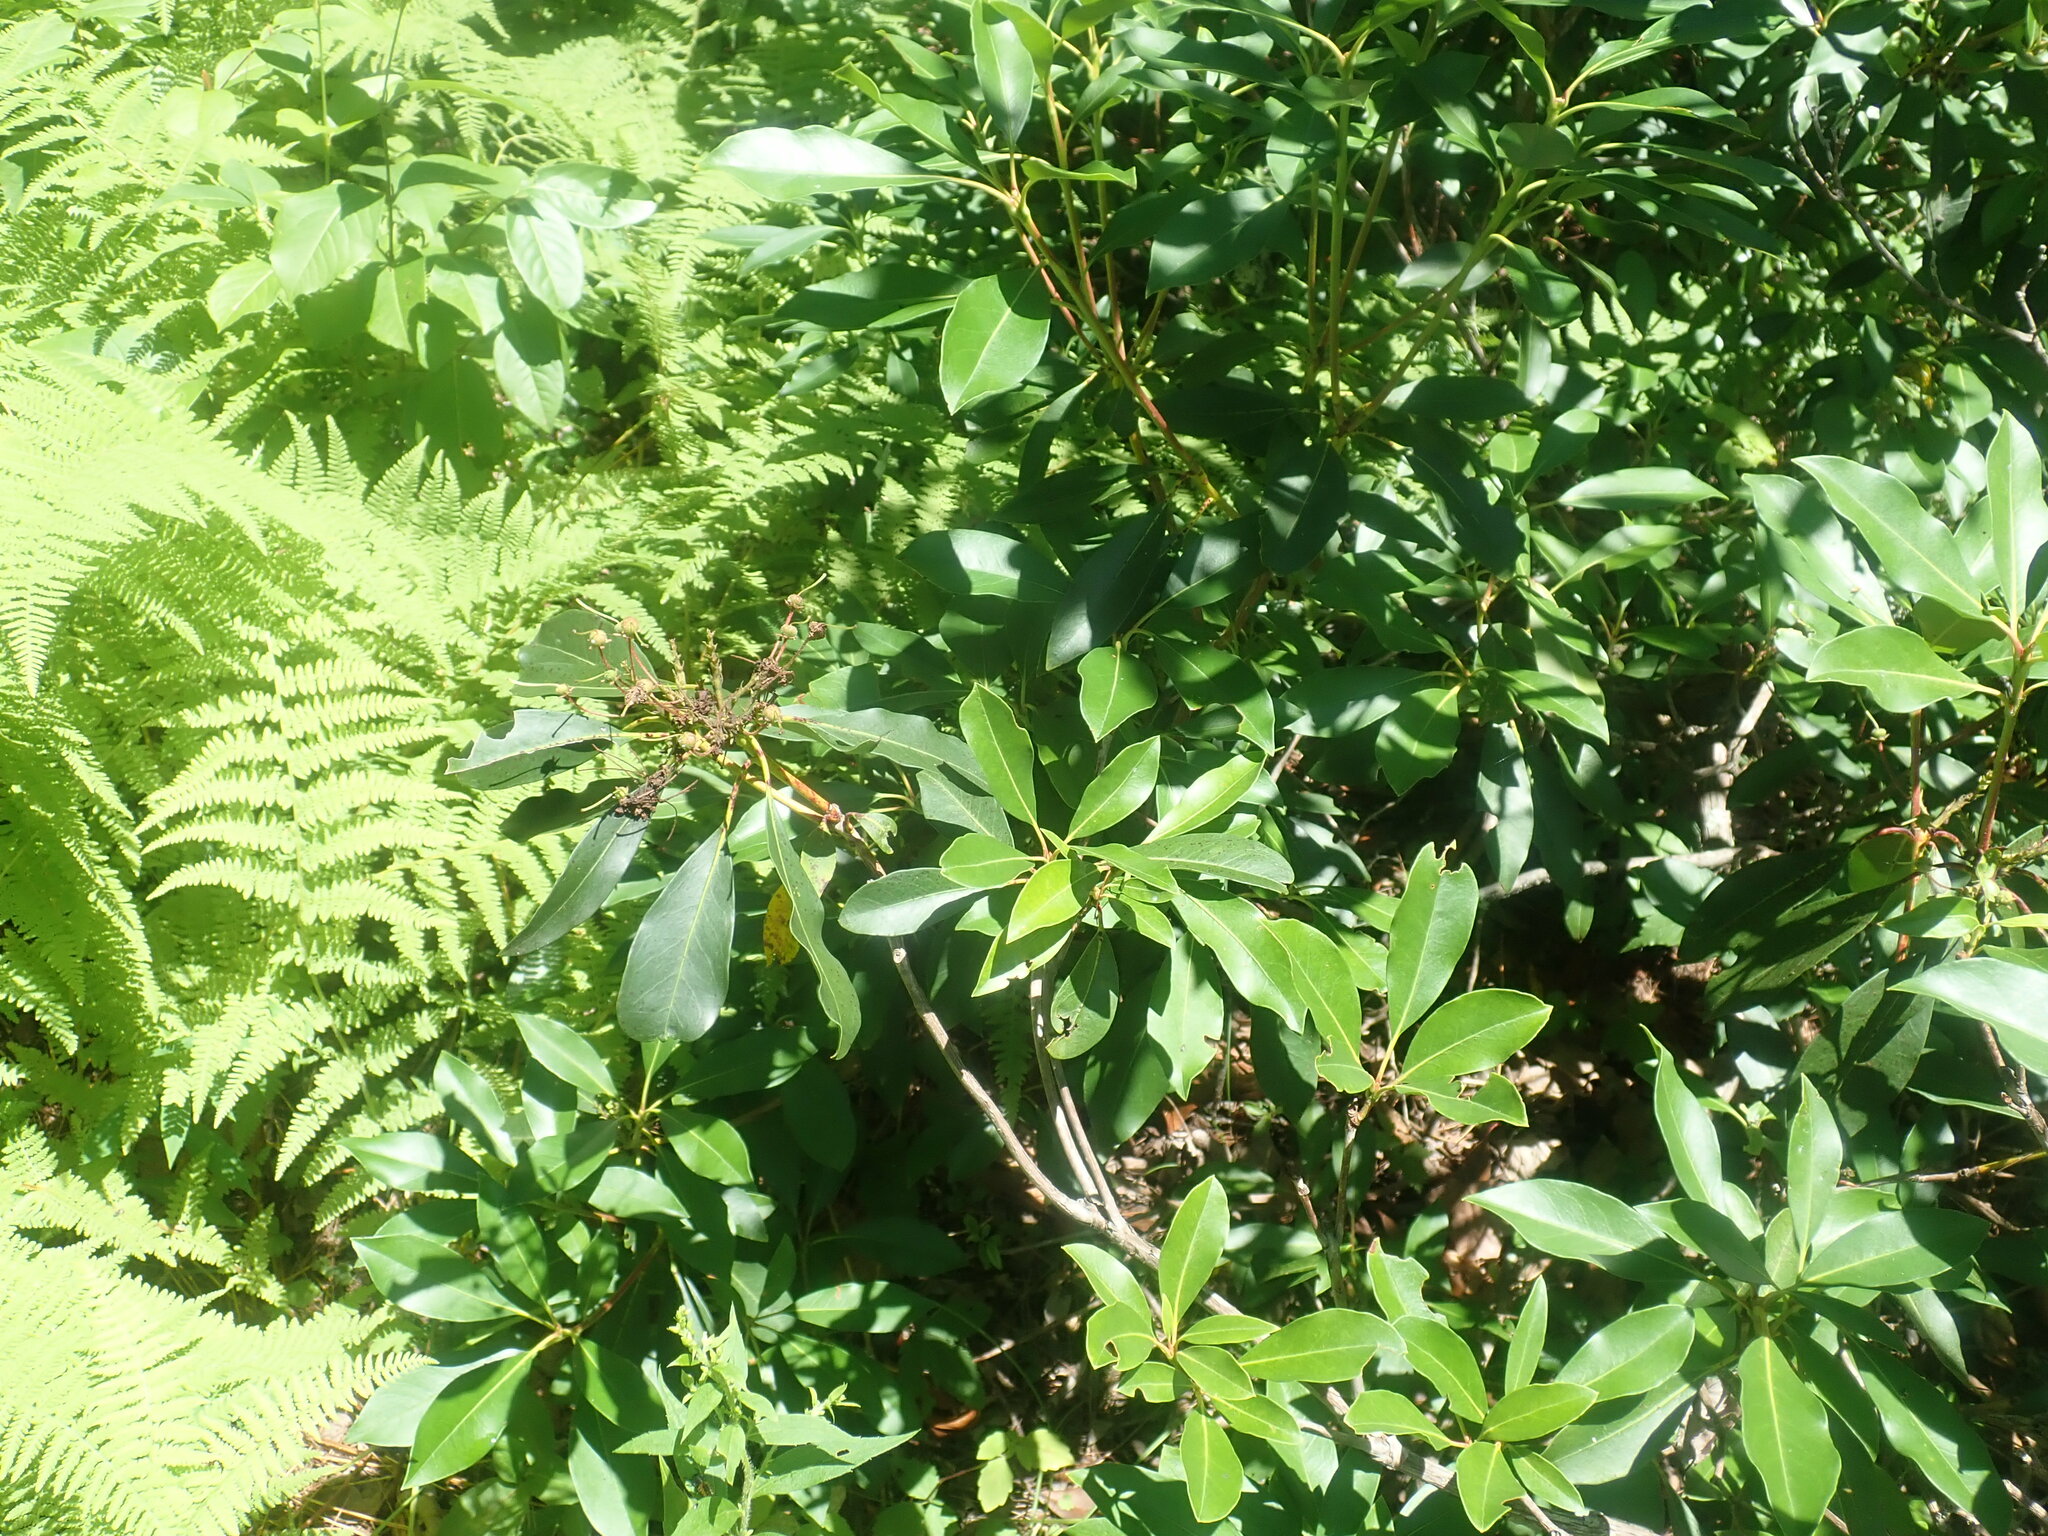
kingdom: Plantae
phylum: Tracheophyta
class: Magnoliopsida
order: Ericales
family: Ericaceae
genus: Kalmia
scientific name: Kalmia latifolia
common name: Mountain-laurel
